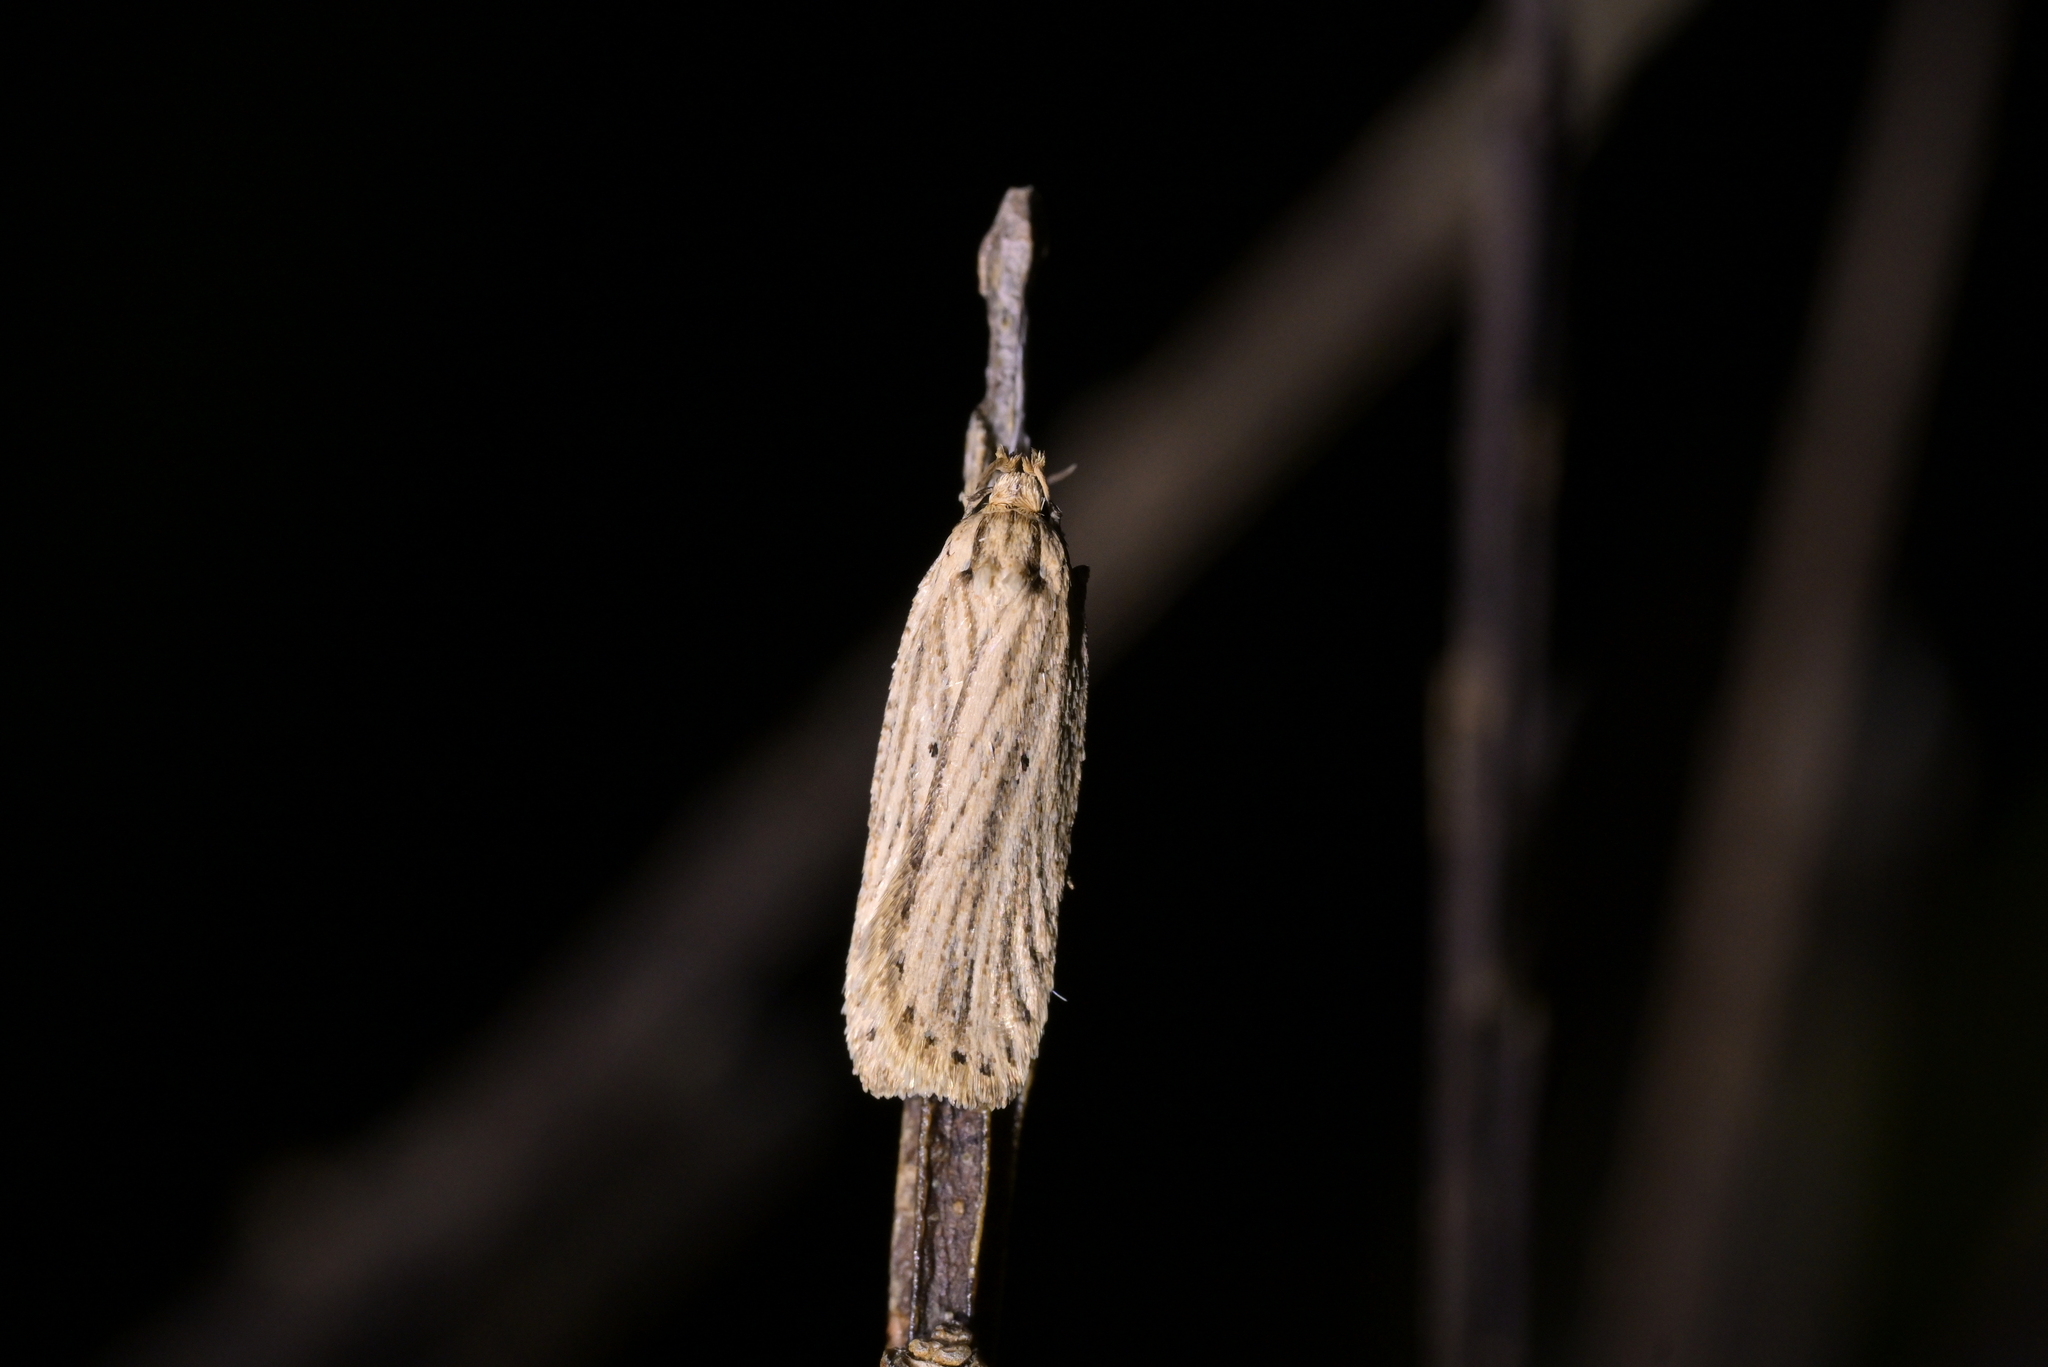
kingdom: Animalia
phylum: Arthropoda
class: Insecta
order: Lepidoptera
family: Depressariidae
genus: Agonopterix
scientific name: Agonopterix
